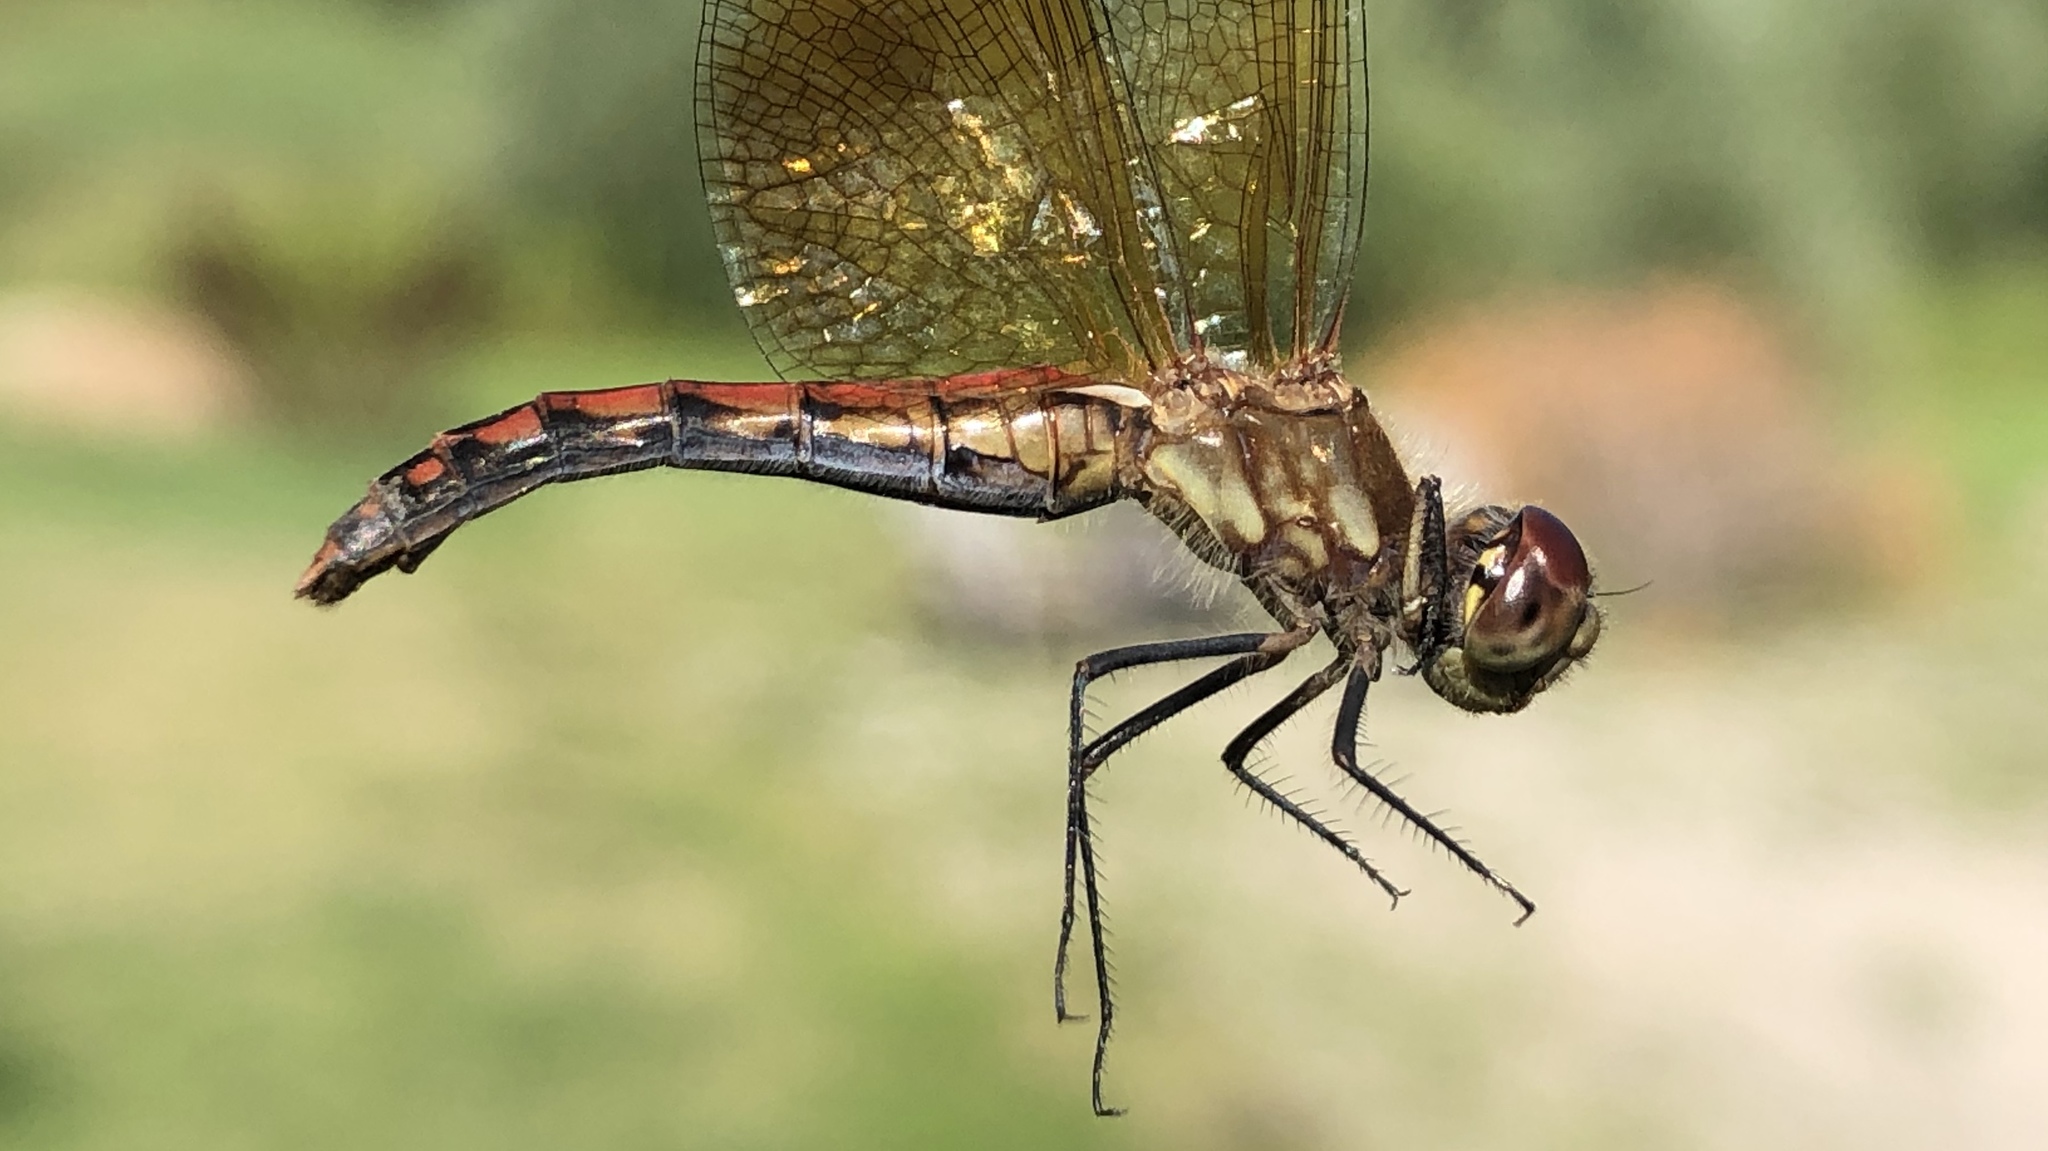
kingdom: Animalia
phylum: Arthropoda
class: Insecta
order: Odonata
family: Libellulidae
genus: Sympetrum
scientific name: Sympetrum semicinctum
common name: Band-winged meadowhawk
